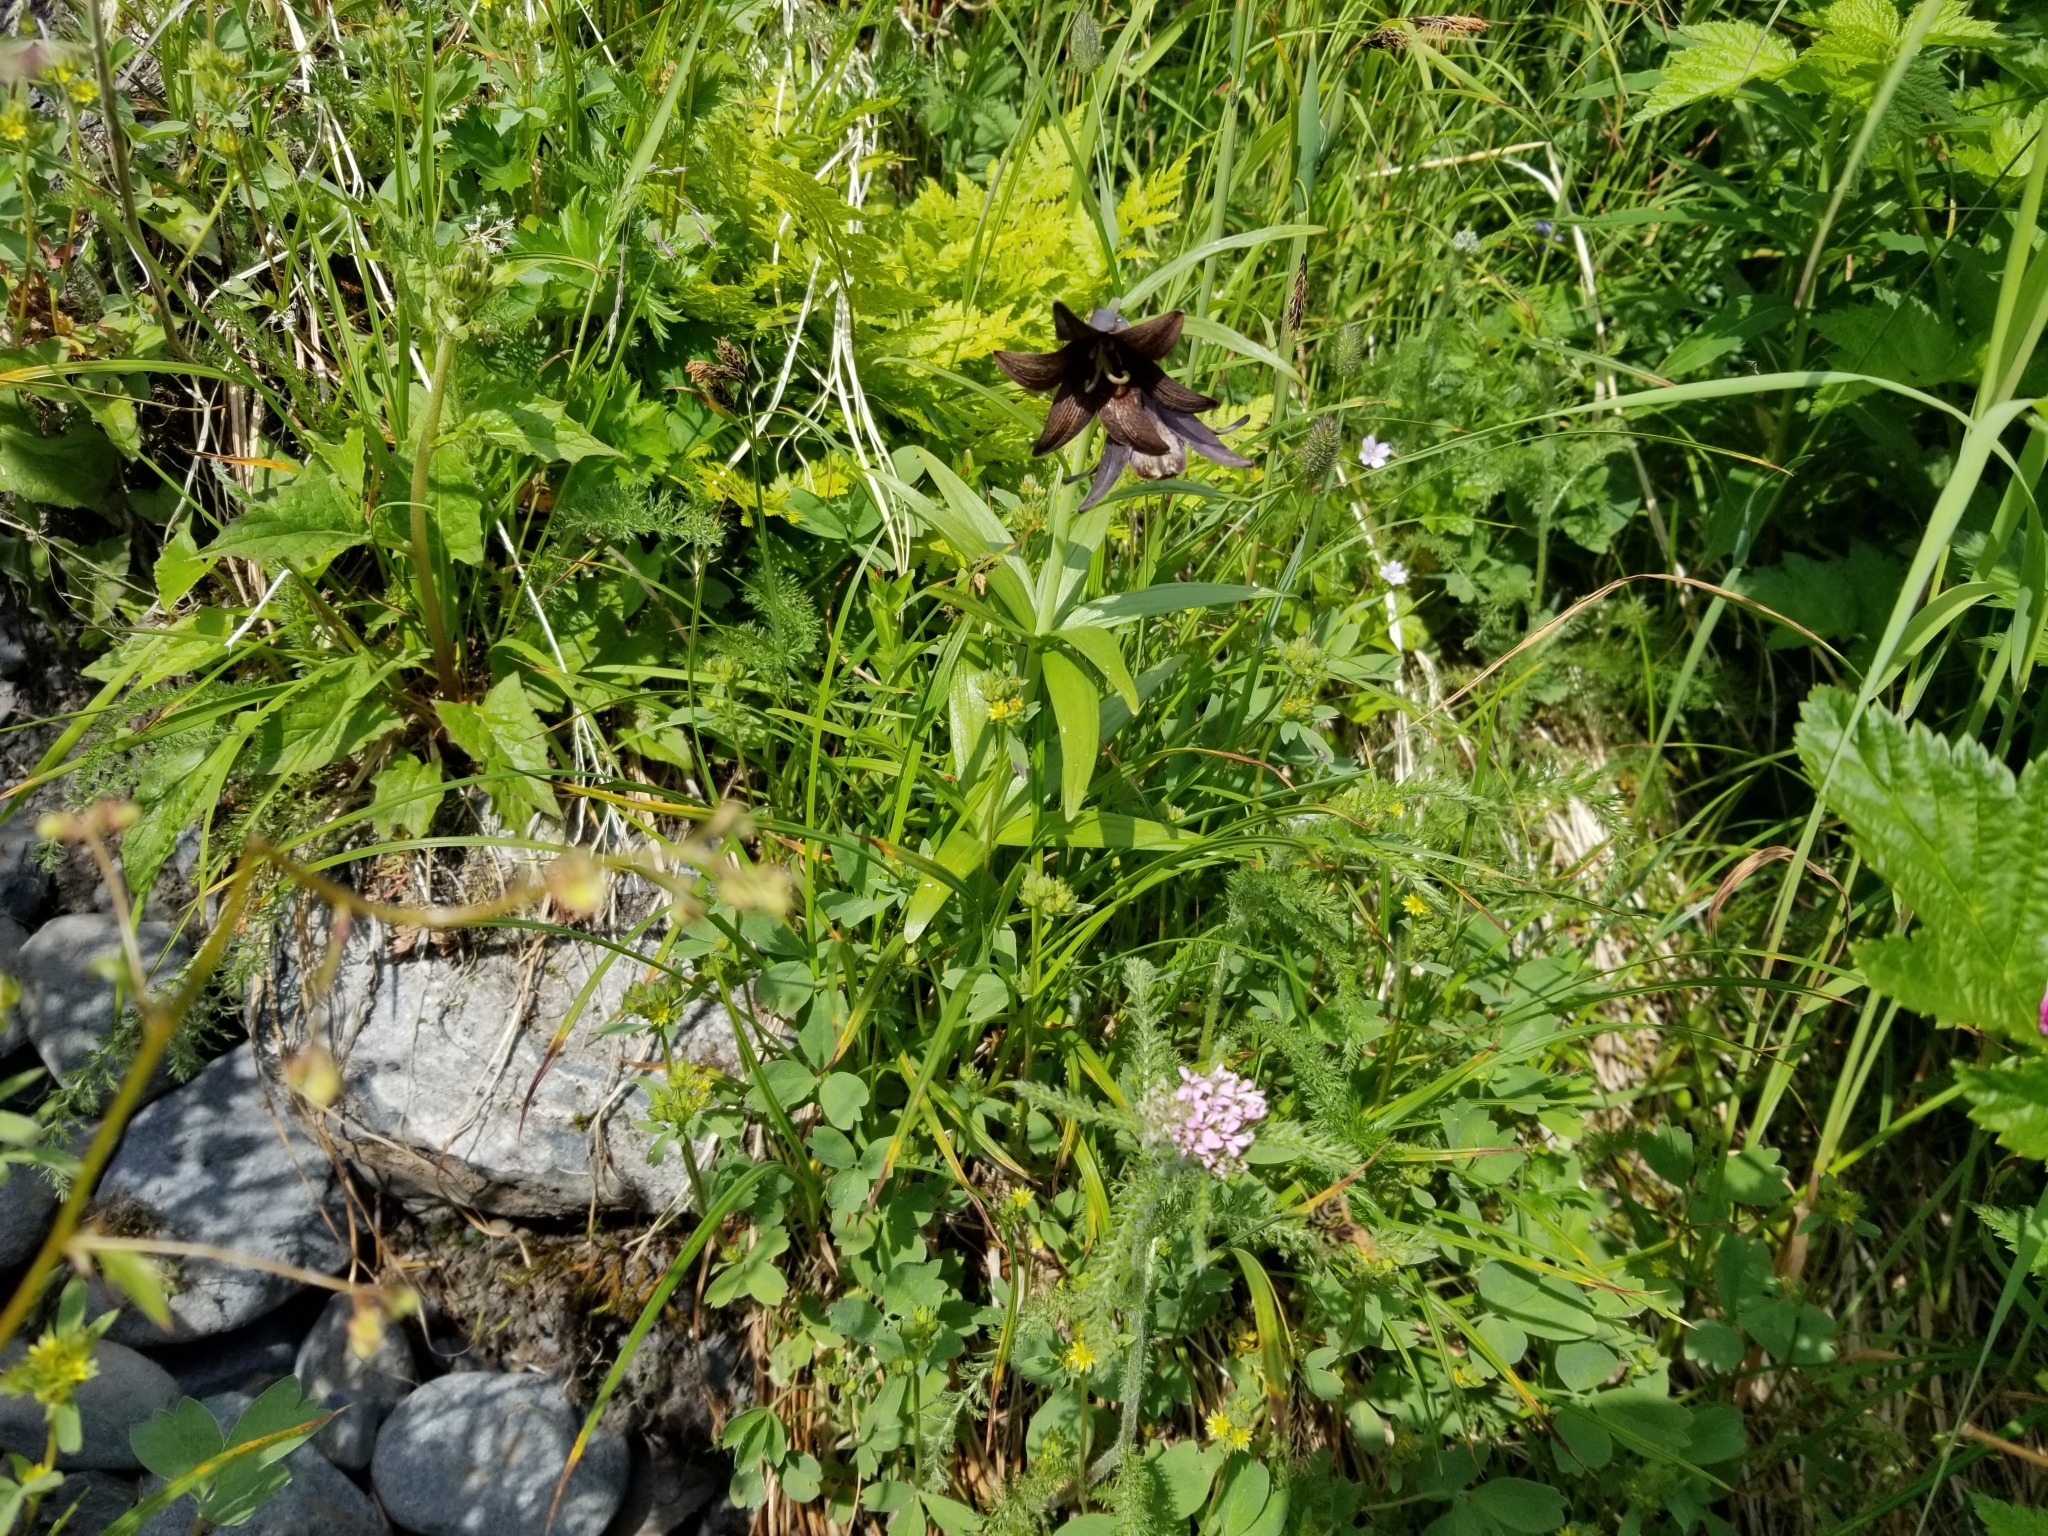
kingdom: Plantae
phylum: Tracheophyta
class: Liliopsida
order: Liliales
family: Liliaceae
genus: Fritillaria
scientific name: Fritillaria camschatcensis
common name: Kamchatka fritillary
